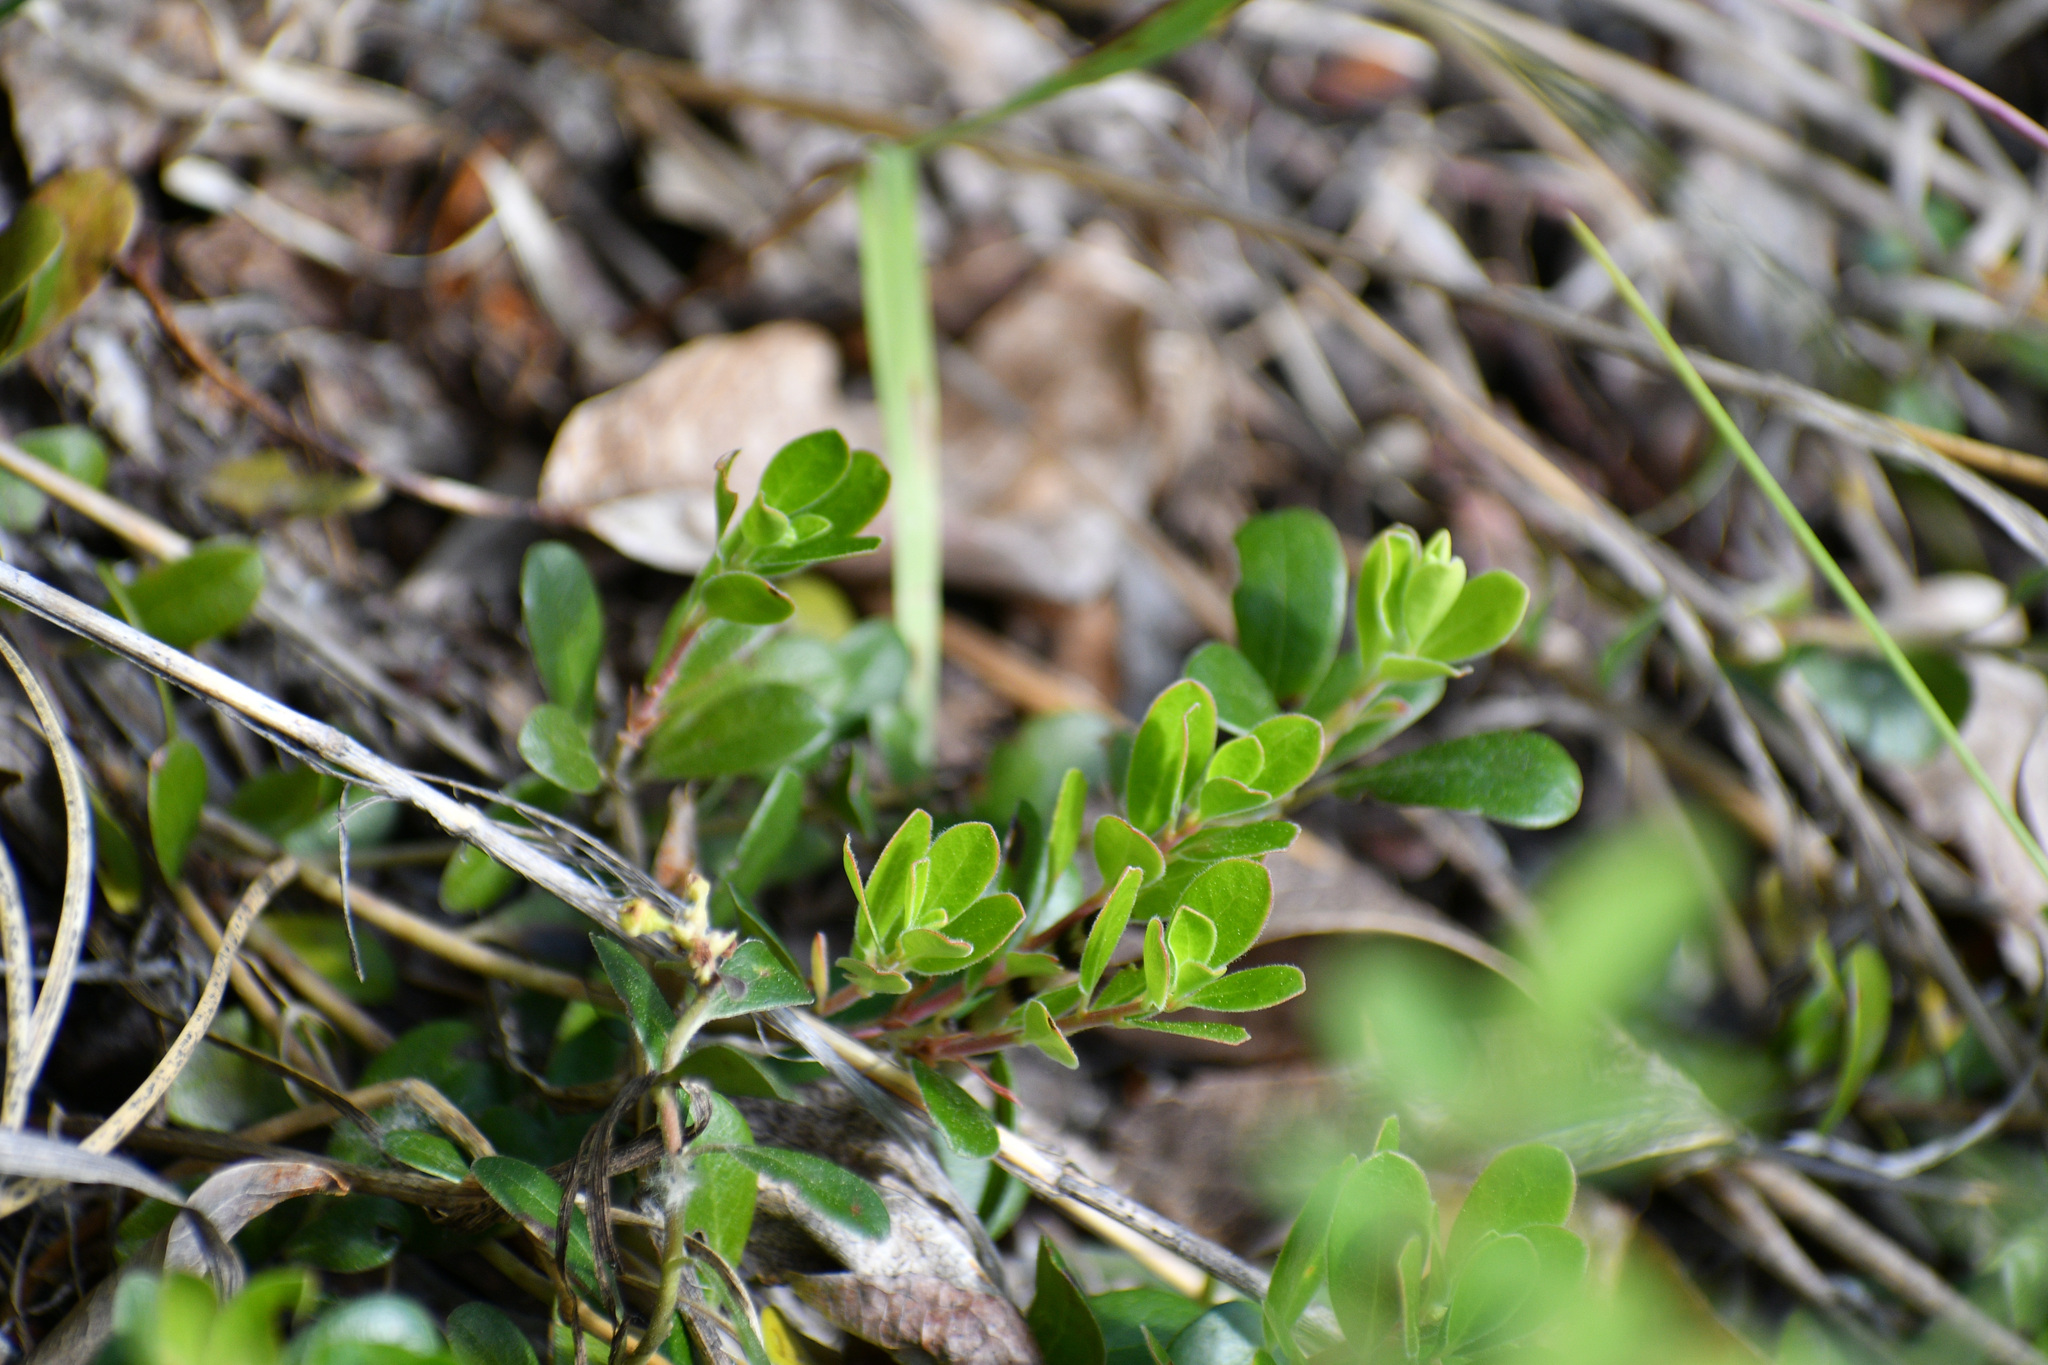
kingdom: Plantae
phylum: Tracheophyta
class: Magnoliopsida
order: Ericales
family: Ericaceae
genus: Arctostaphylos
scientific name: Arctostaphylos uva-ursi
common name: Bearberry
